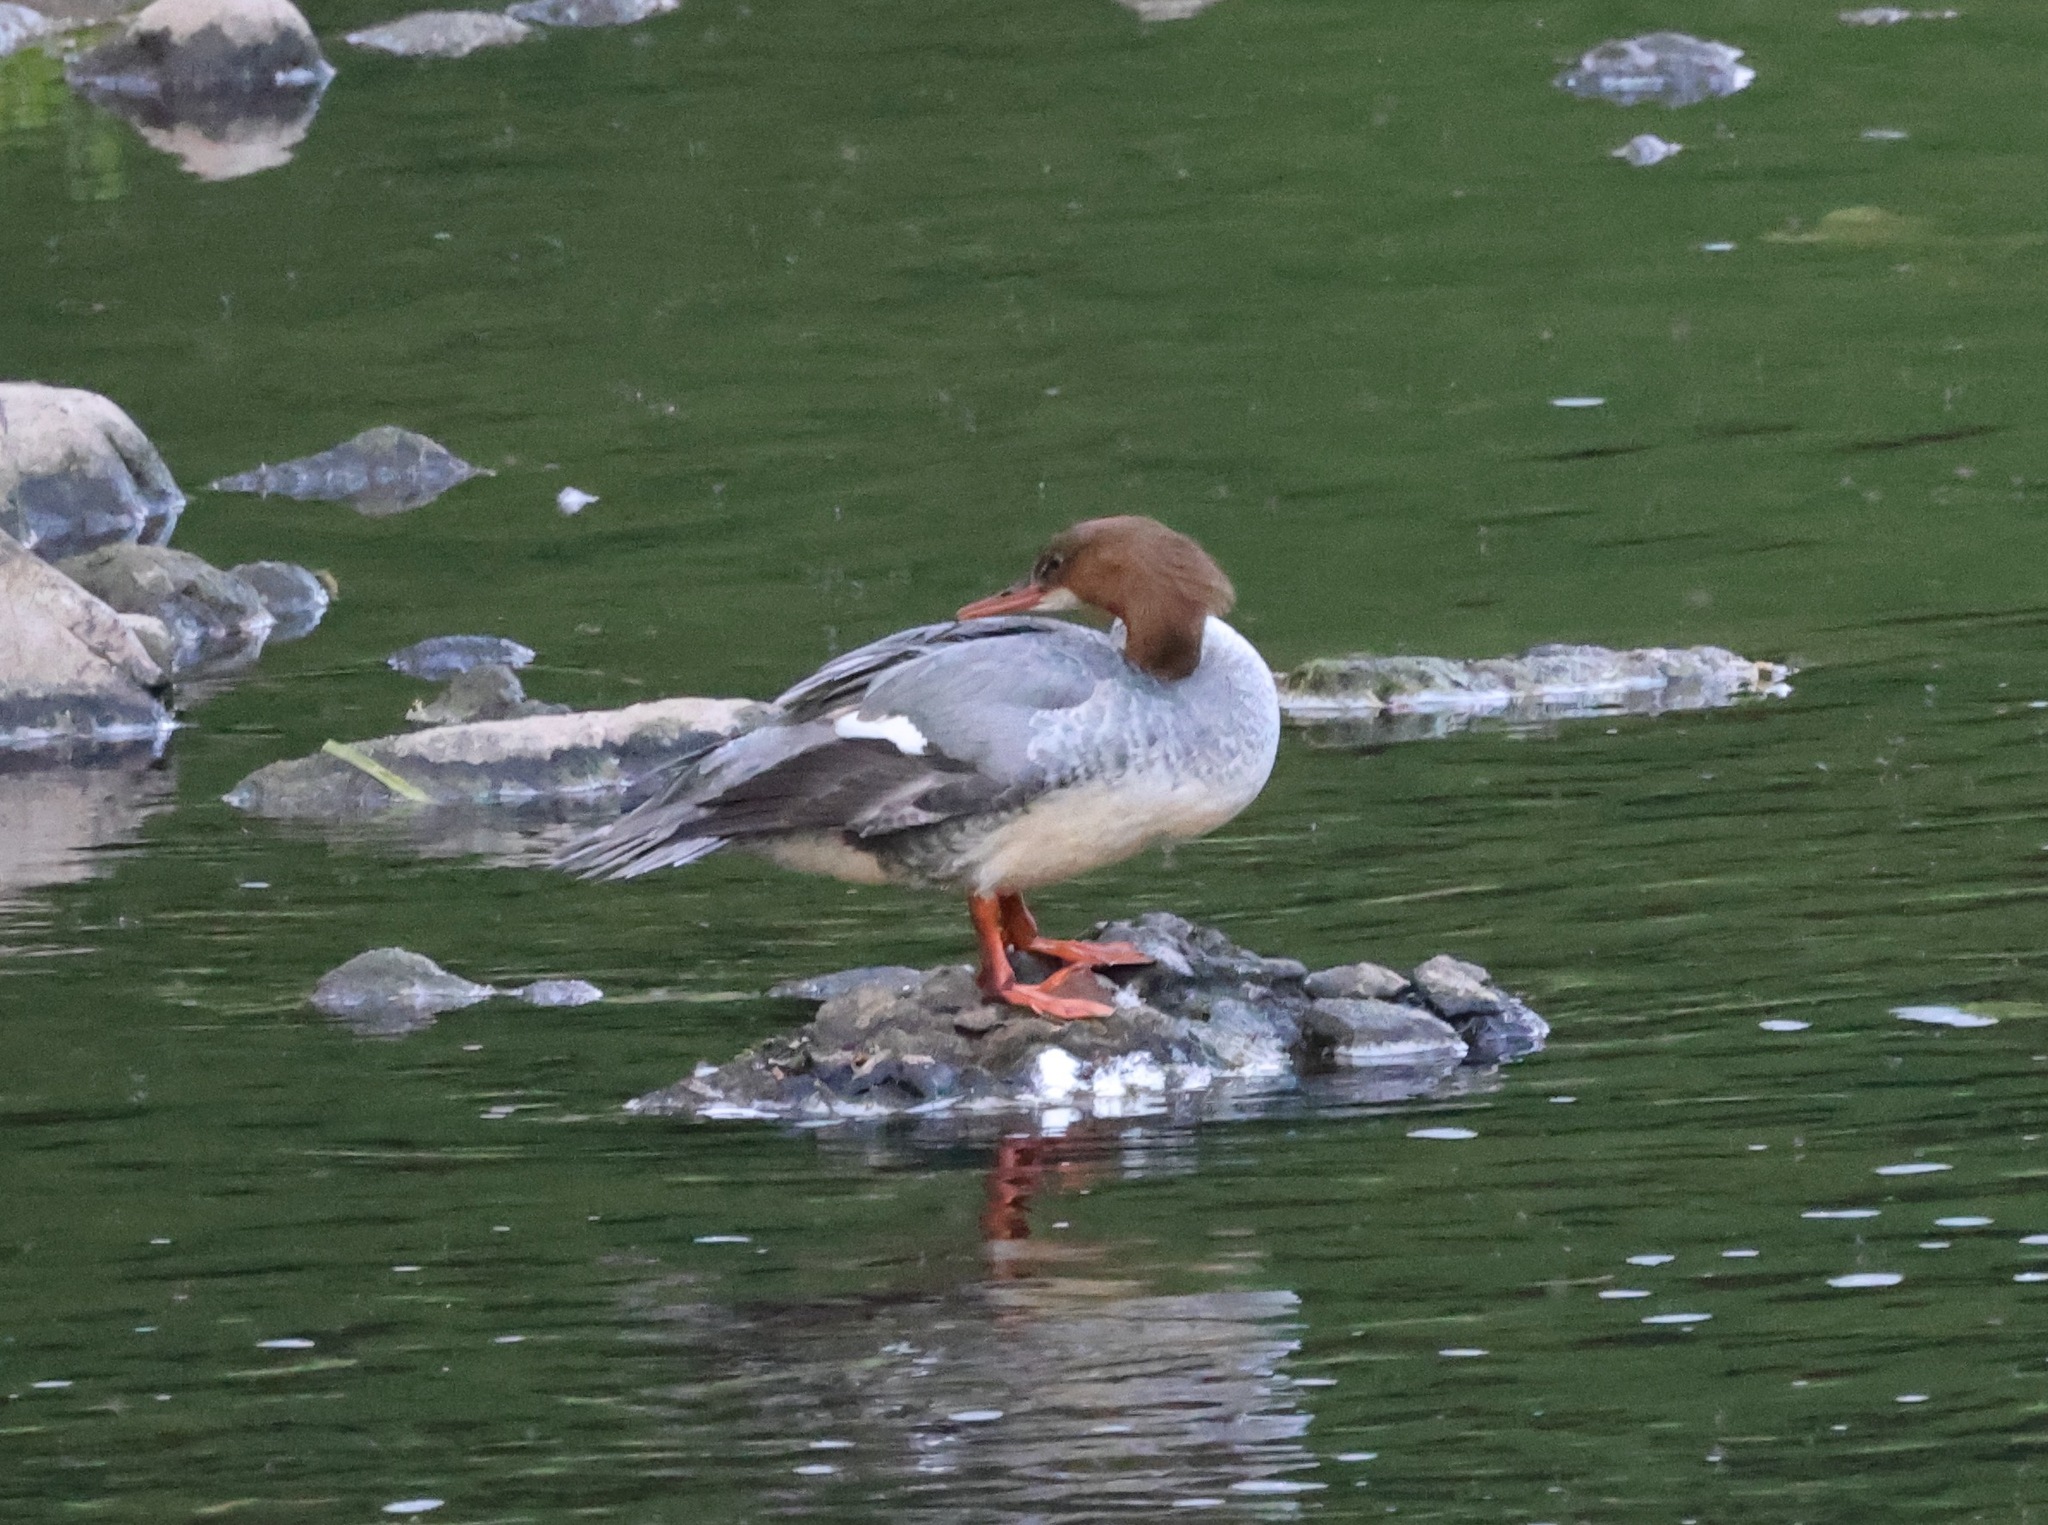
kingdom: Animalia
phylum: Chordata
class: Aves
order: Anseriformes
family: Anatidae
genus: Mergus
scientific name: Mergus merganser
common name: Common merganser
